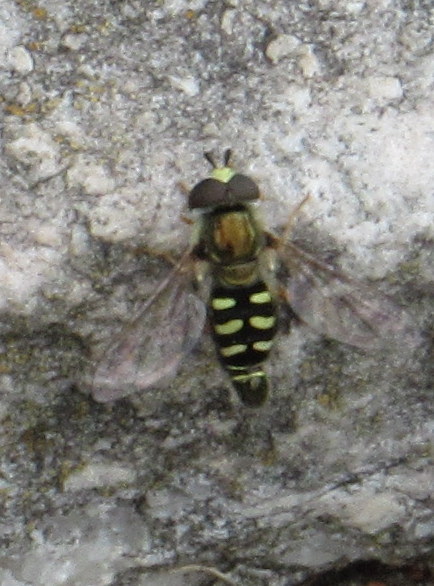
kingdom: Animalia
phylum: Arthropoda
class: Insecta
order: Diptera
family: Syrphidae
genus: Eupeodes
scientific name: Eupeodes volucris
